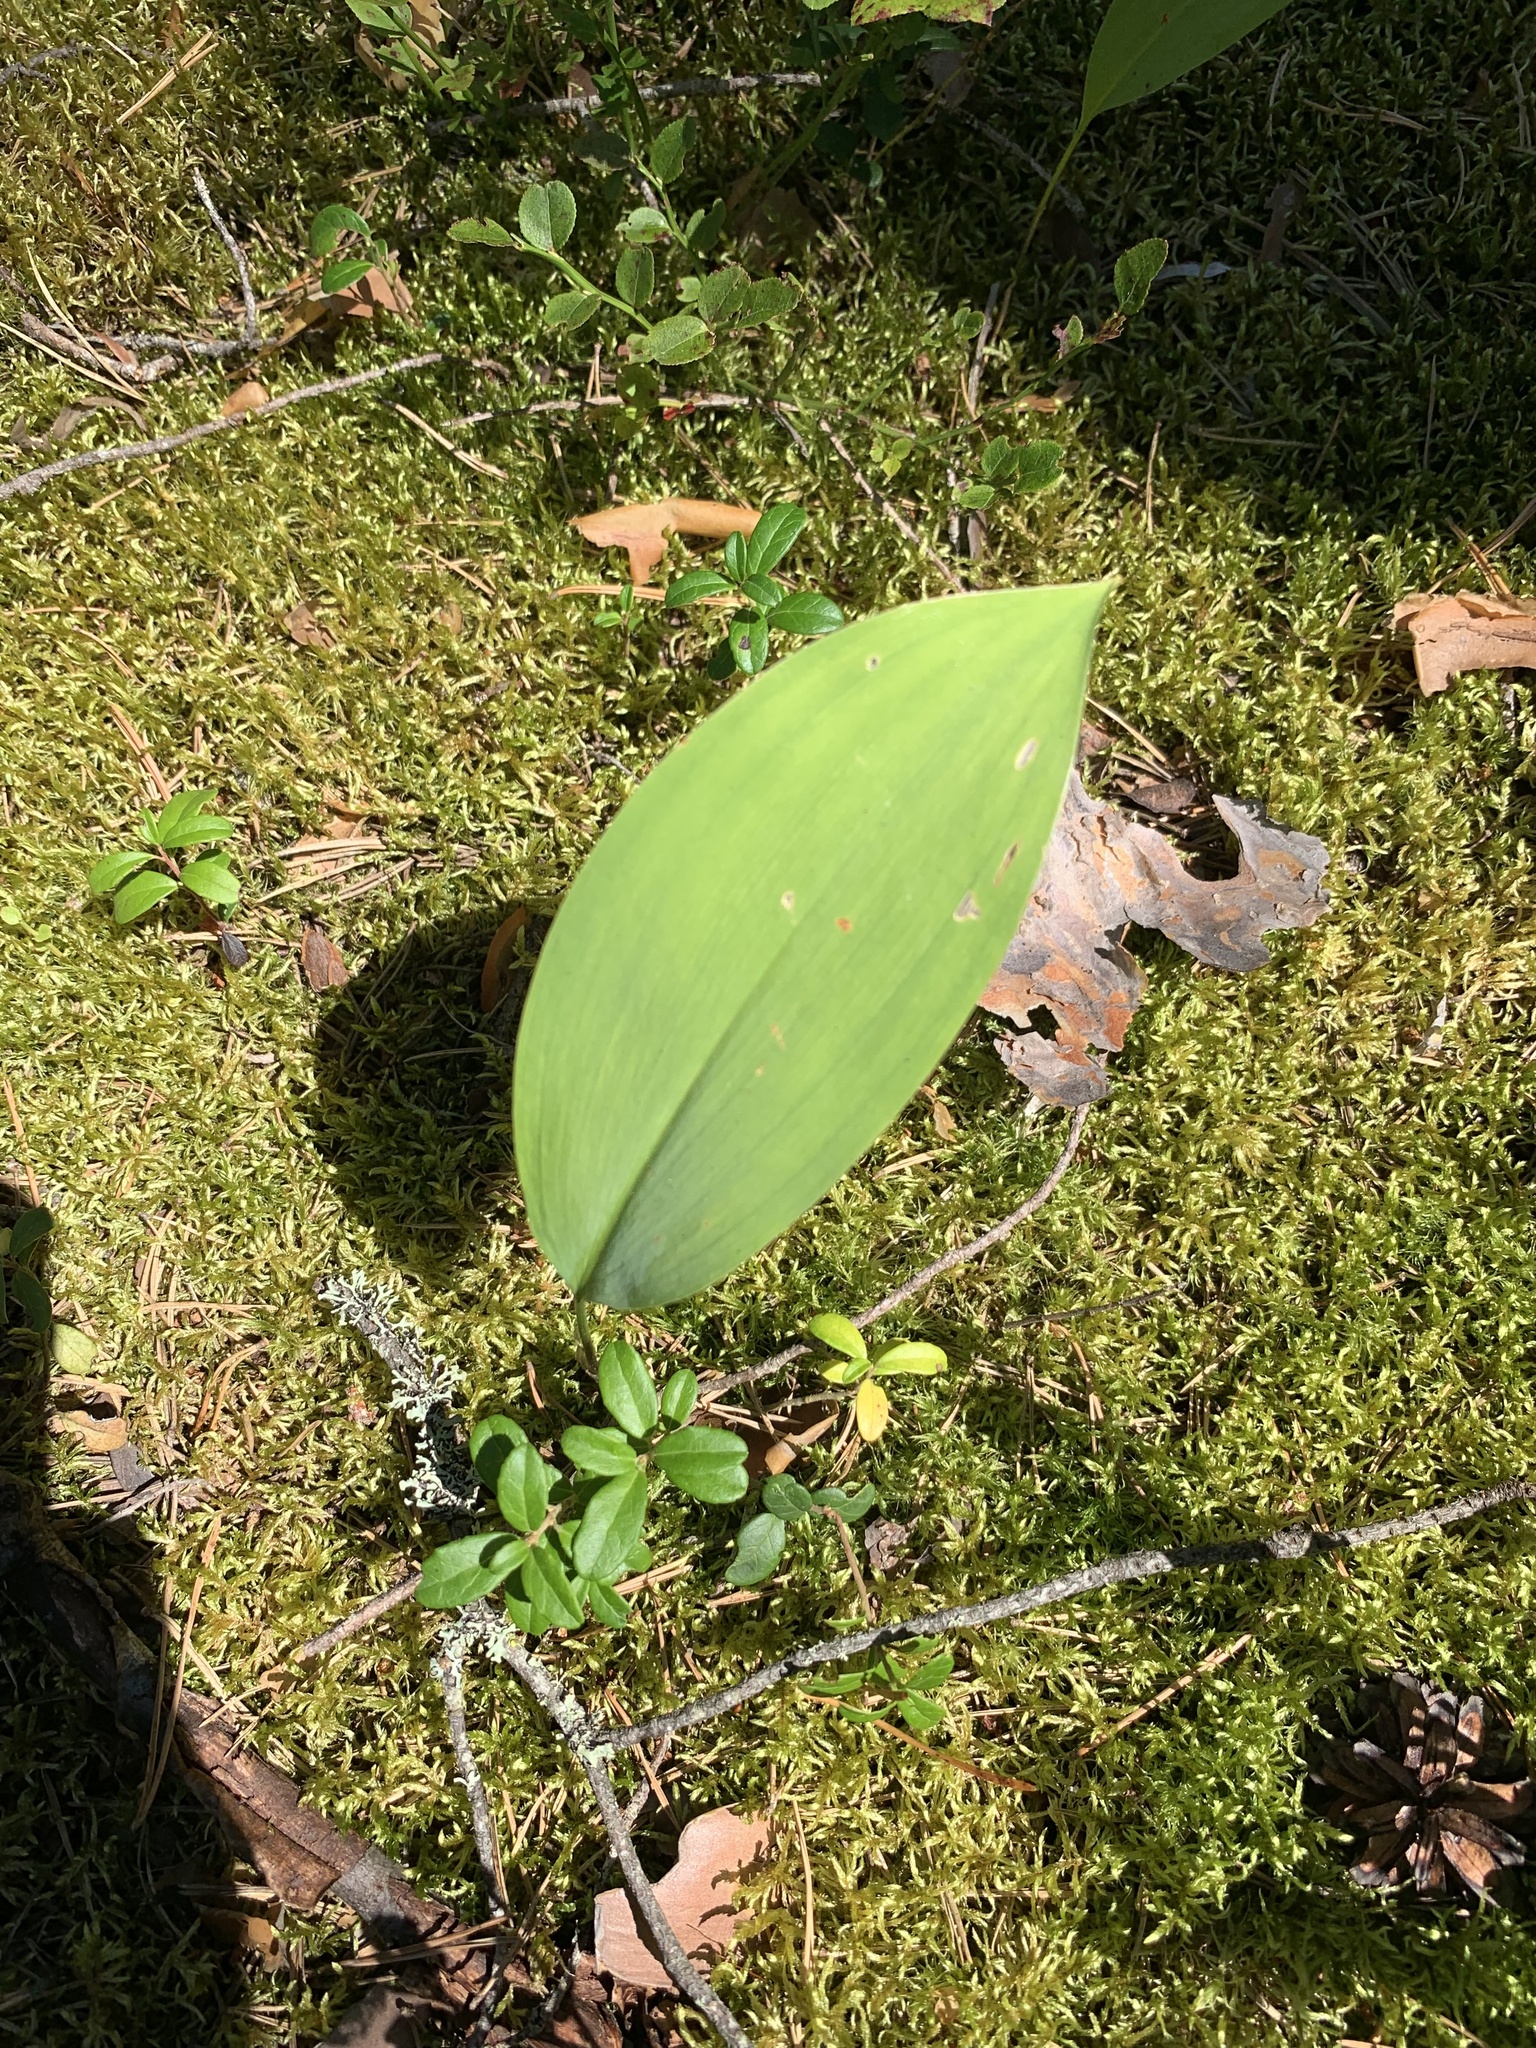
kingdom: Plantae
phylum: Tracheophyta
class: Liliopsida
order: Asparagales
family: Asparagaceae
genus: Convallaria
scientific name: Convallaria majalis
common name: Lily-of-the-valley
